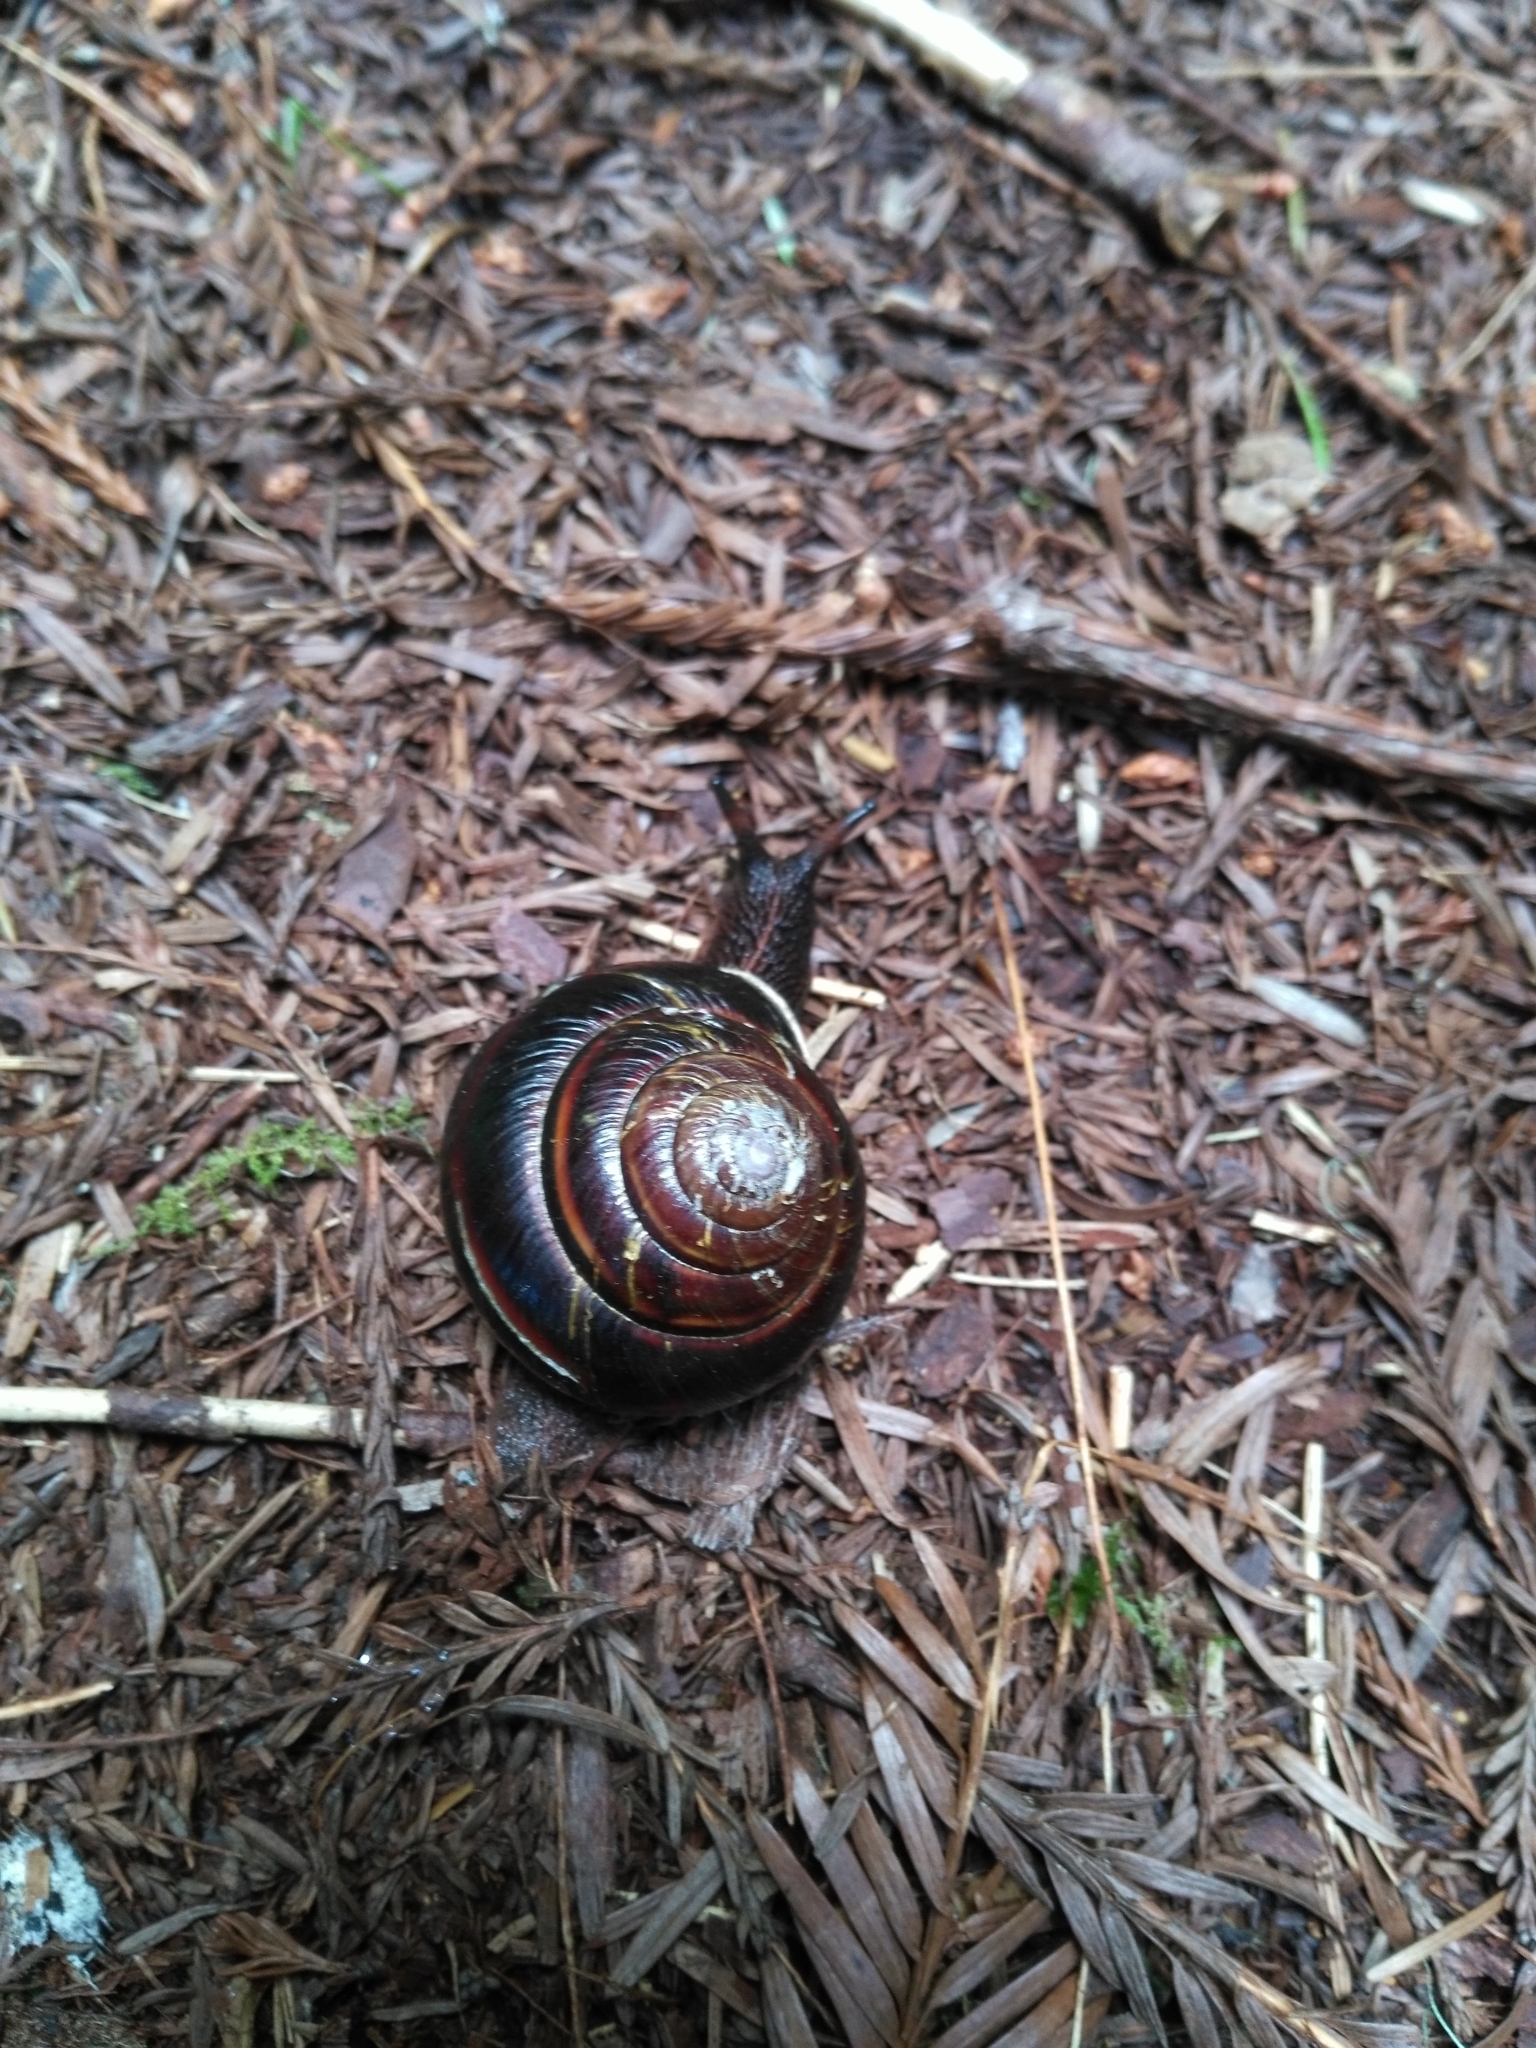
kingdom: Animalia
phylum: Mollusca
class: Gastropoda
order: Stylommatophora
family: Xanthonychidae
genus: Monadenia
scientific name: Monadenia infumata
